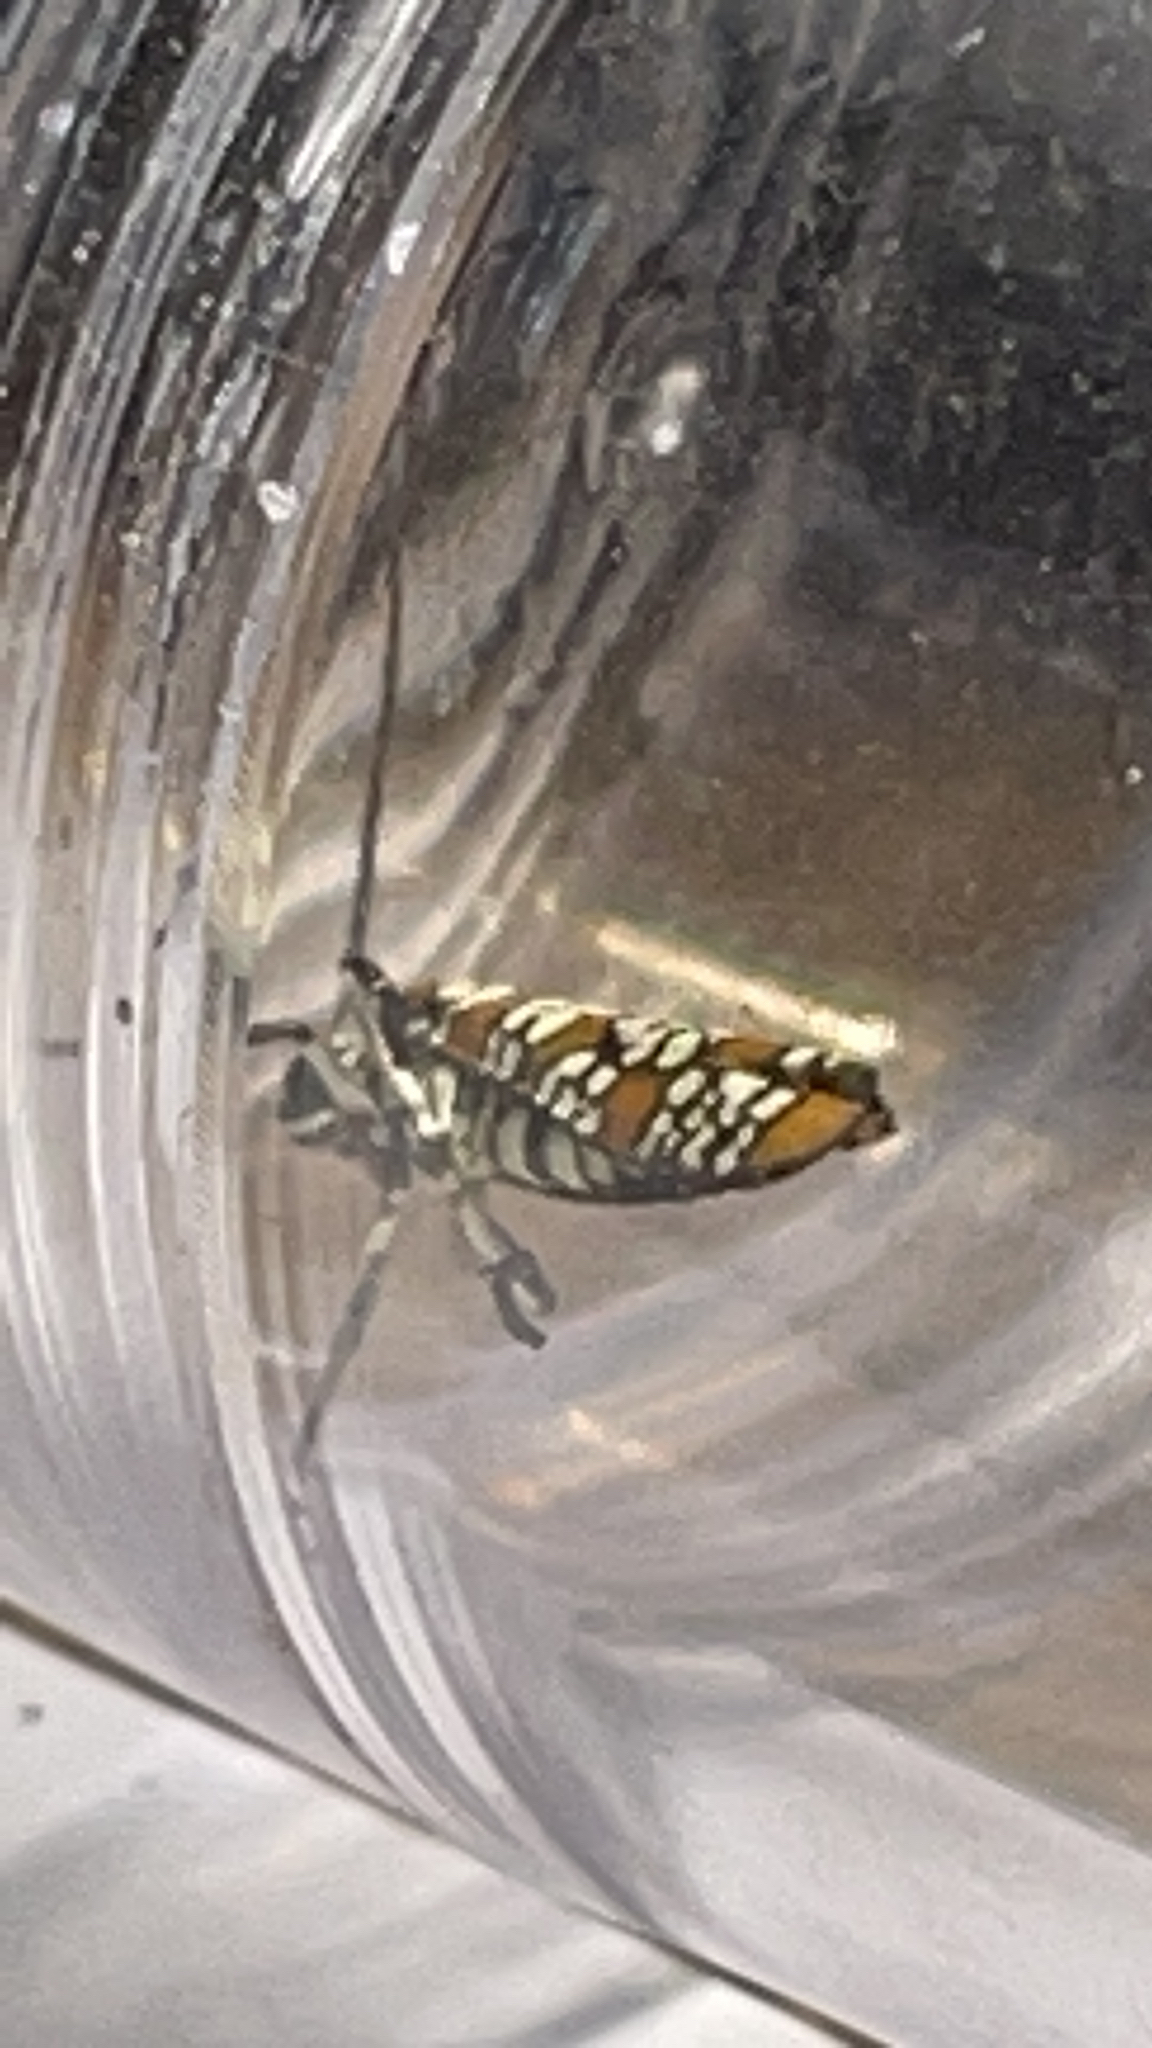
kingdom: Animalia
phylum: Arthropoda
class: Insecta
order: Lepidoptera
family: Attevidae
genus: Atteva
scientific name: Atteva punctella
